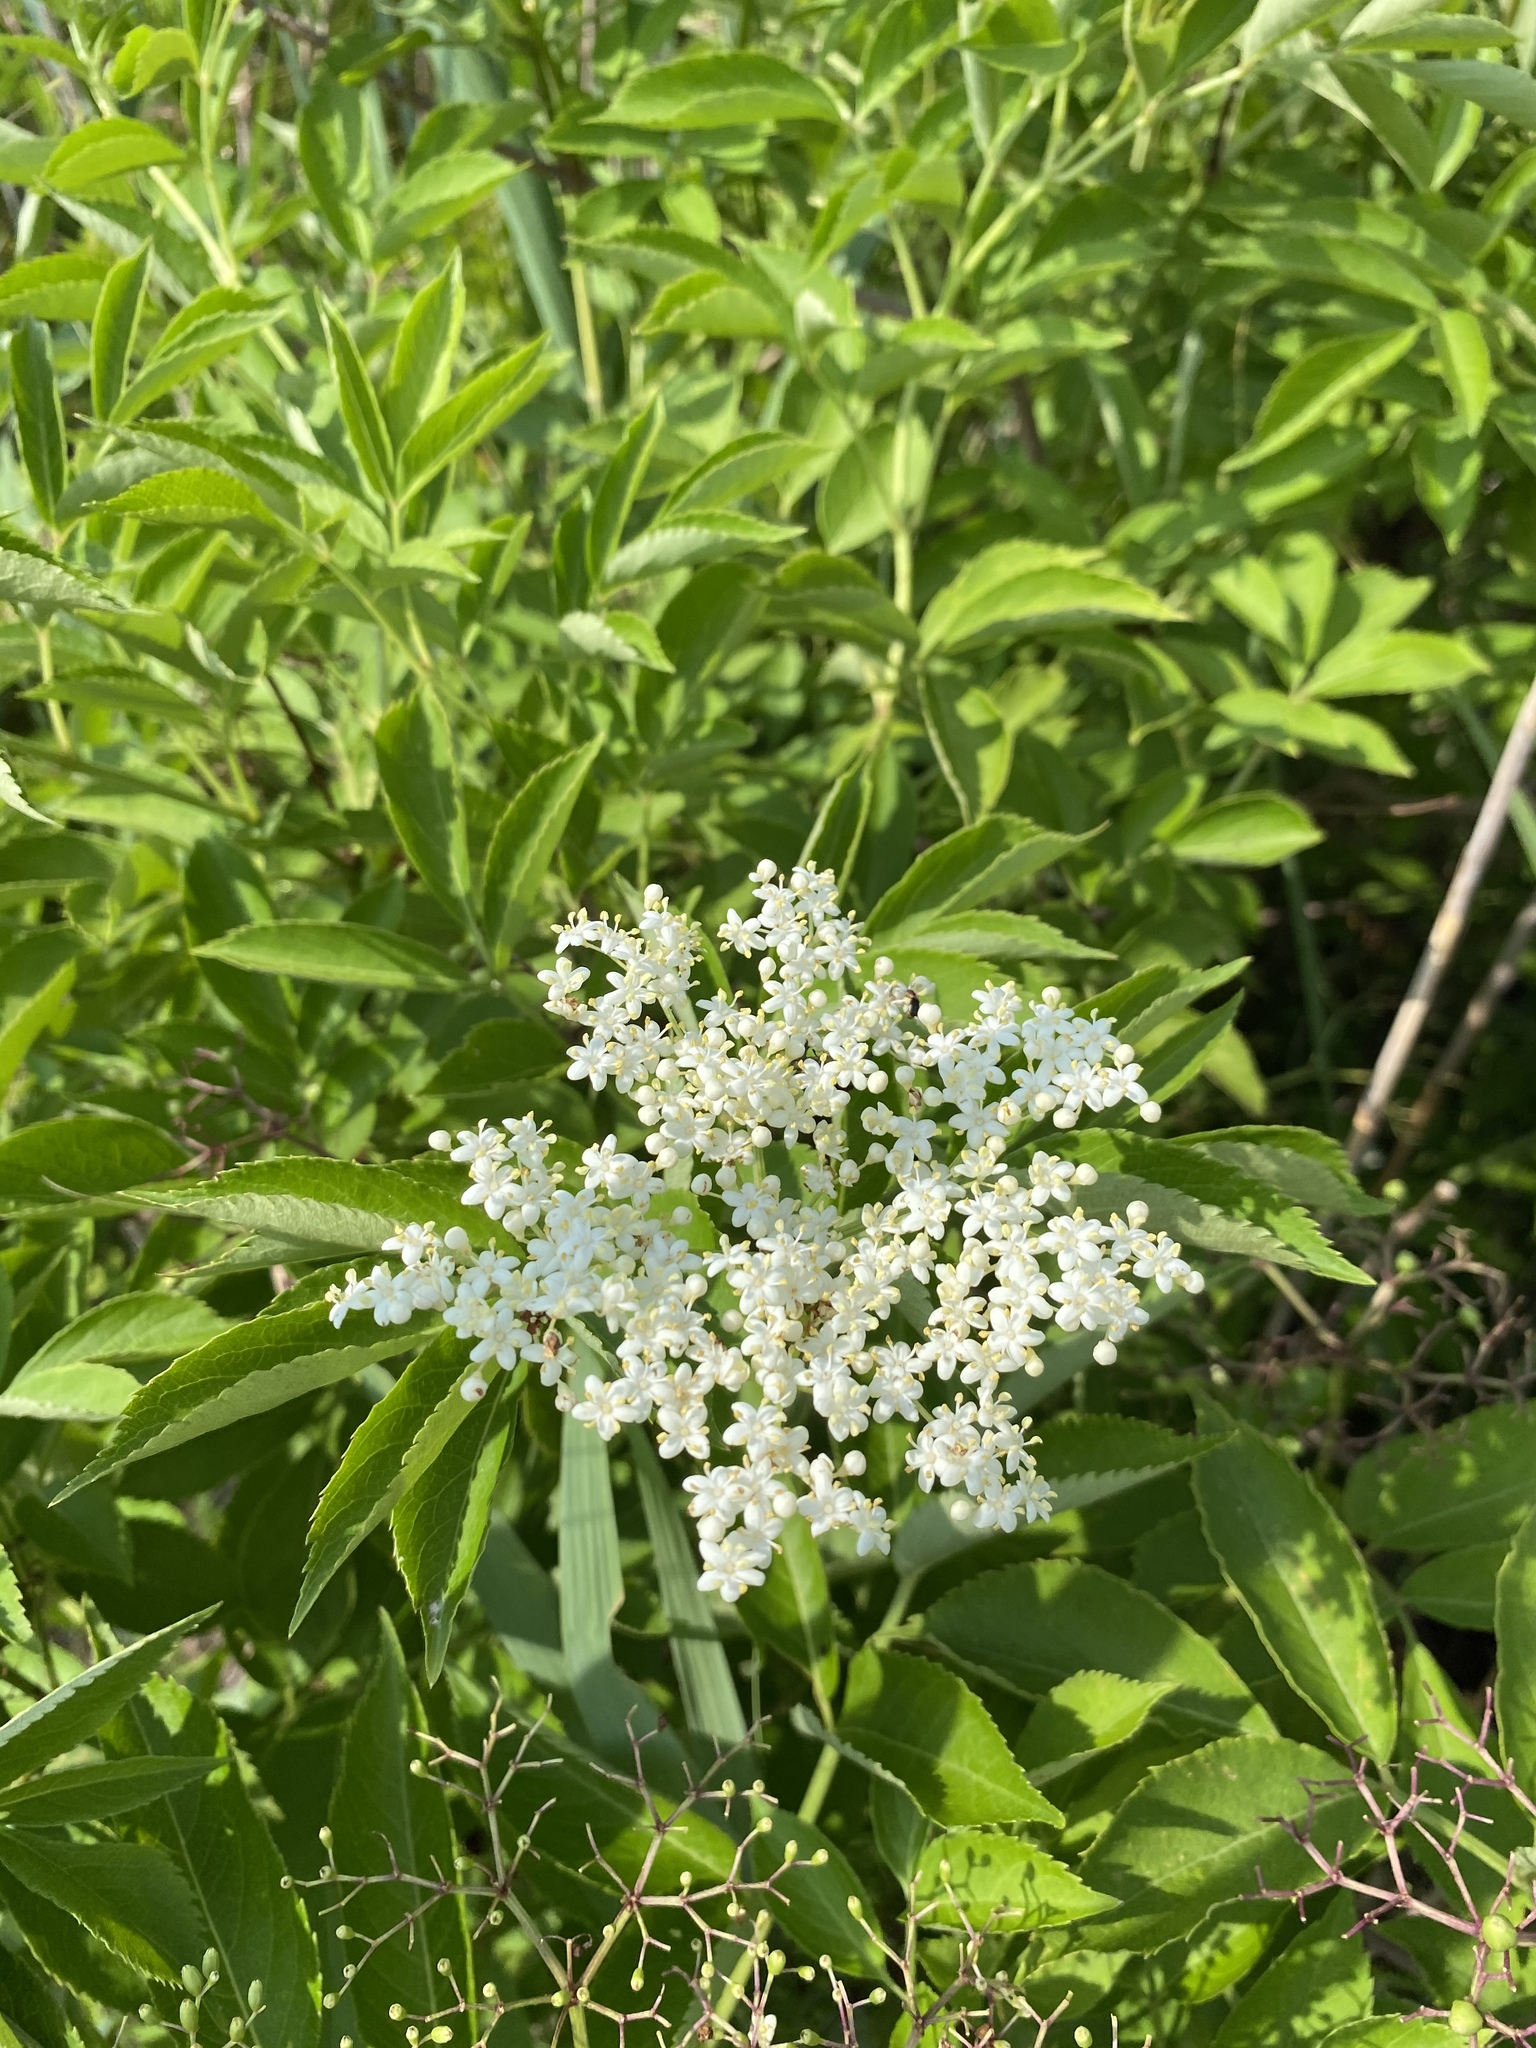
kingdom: Plantae
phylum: Tracheophyta
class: Magnoliopsida
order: Dipsacales
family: Viburnaceae
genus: Sambucus
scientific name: Sambucus canadensis
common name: American elder
